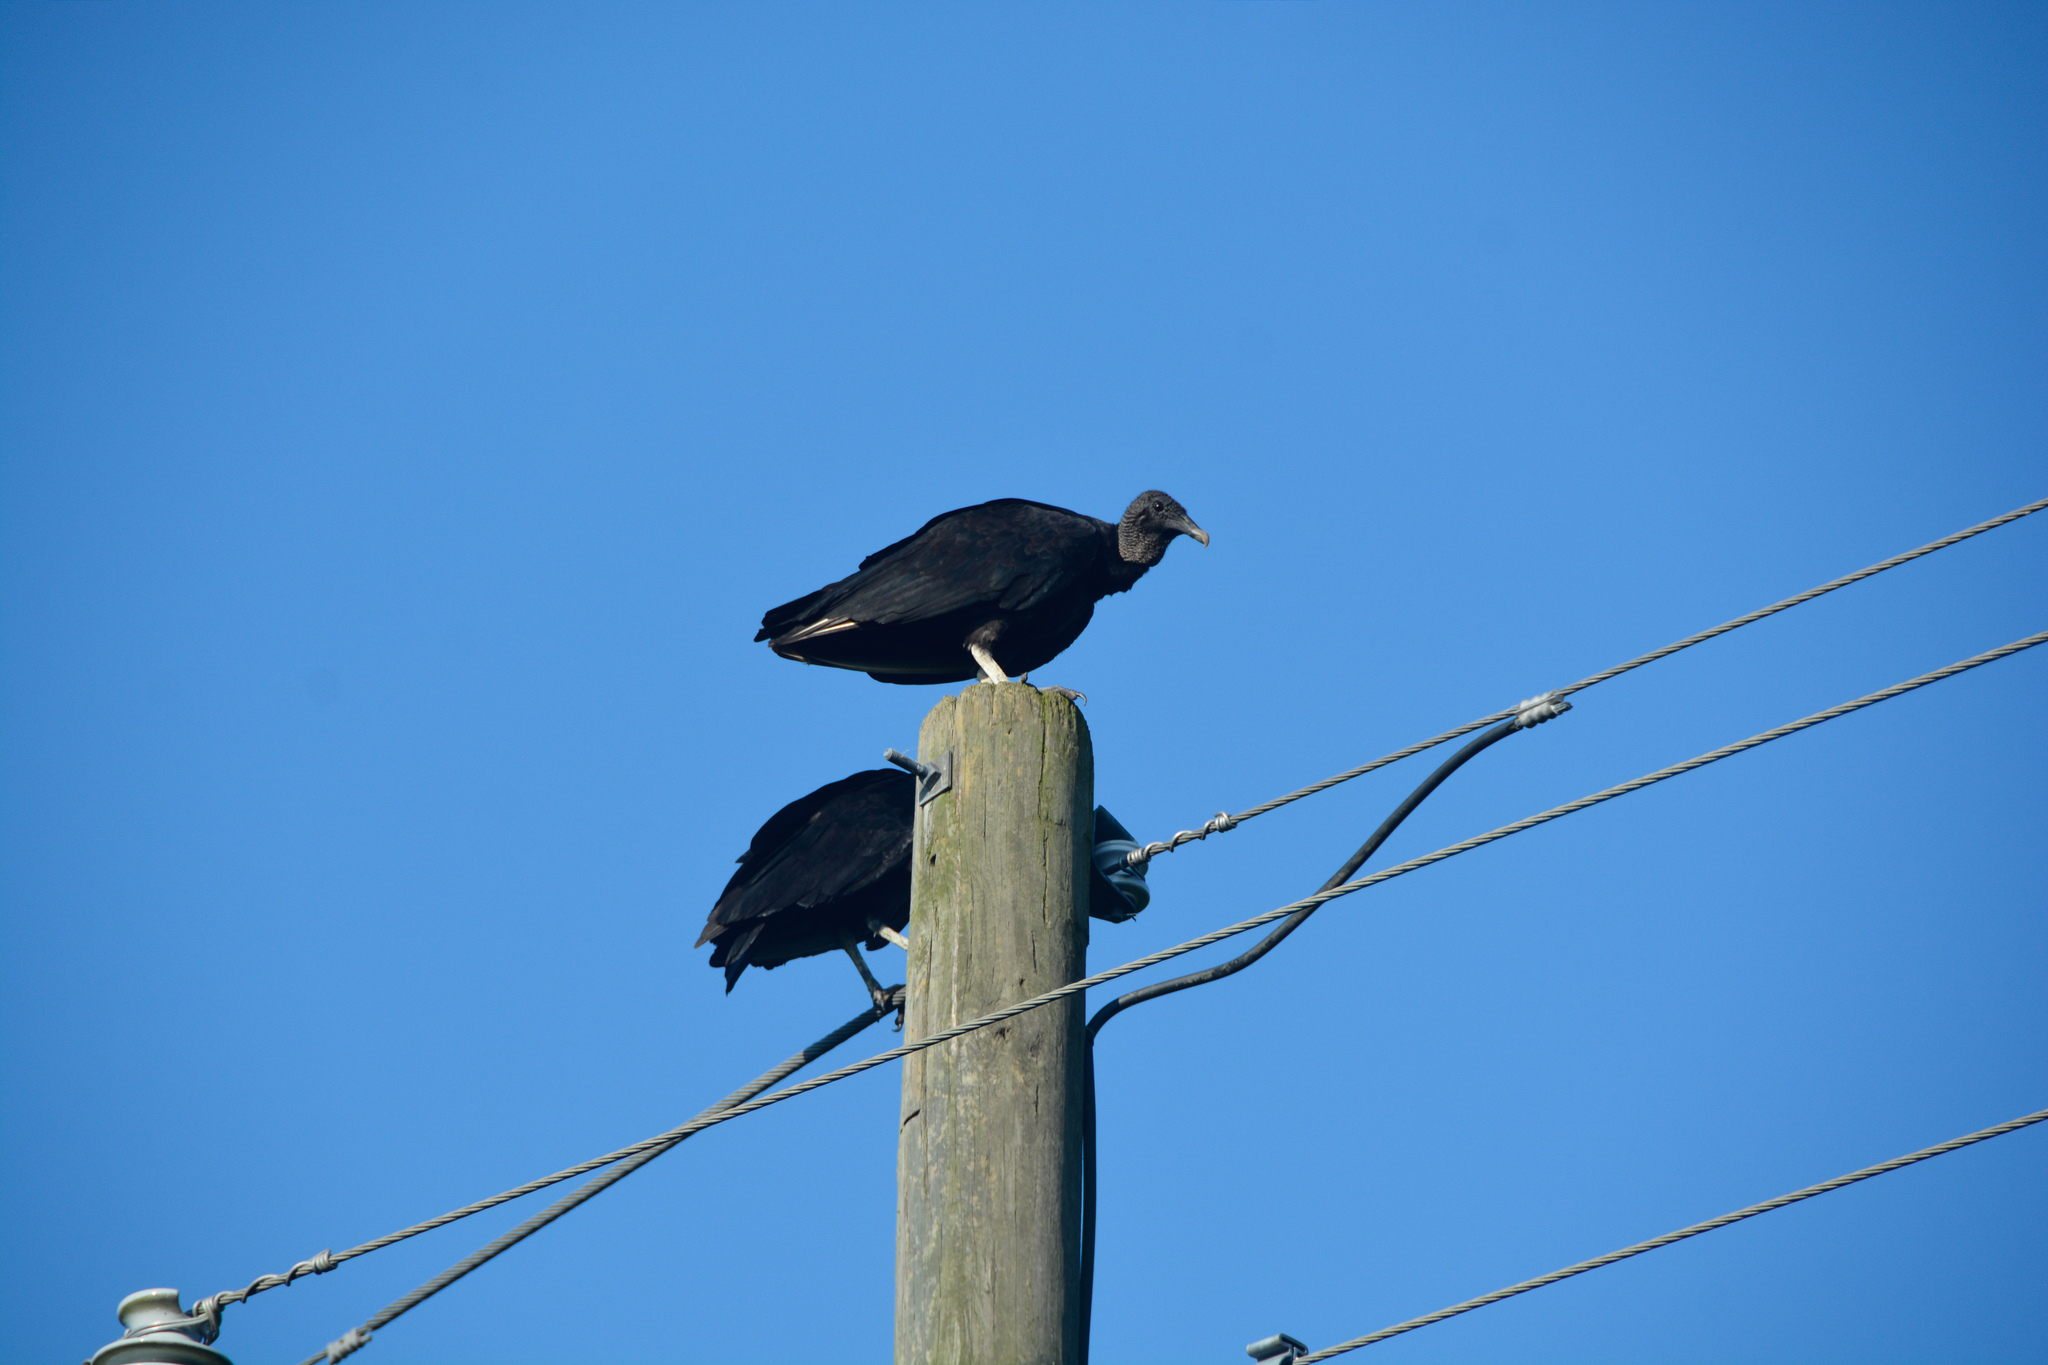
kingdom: Animalia
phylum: Chordata
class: Aves
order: Accipitriformes
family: Cathartidae
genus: Coragyps
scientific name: Coragyps atratus
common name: Black vulture
